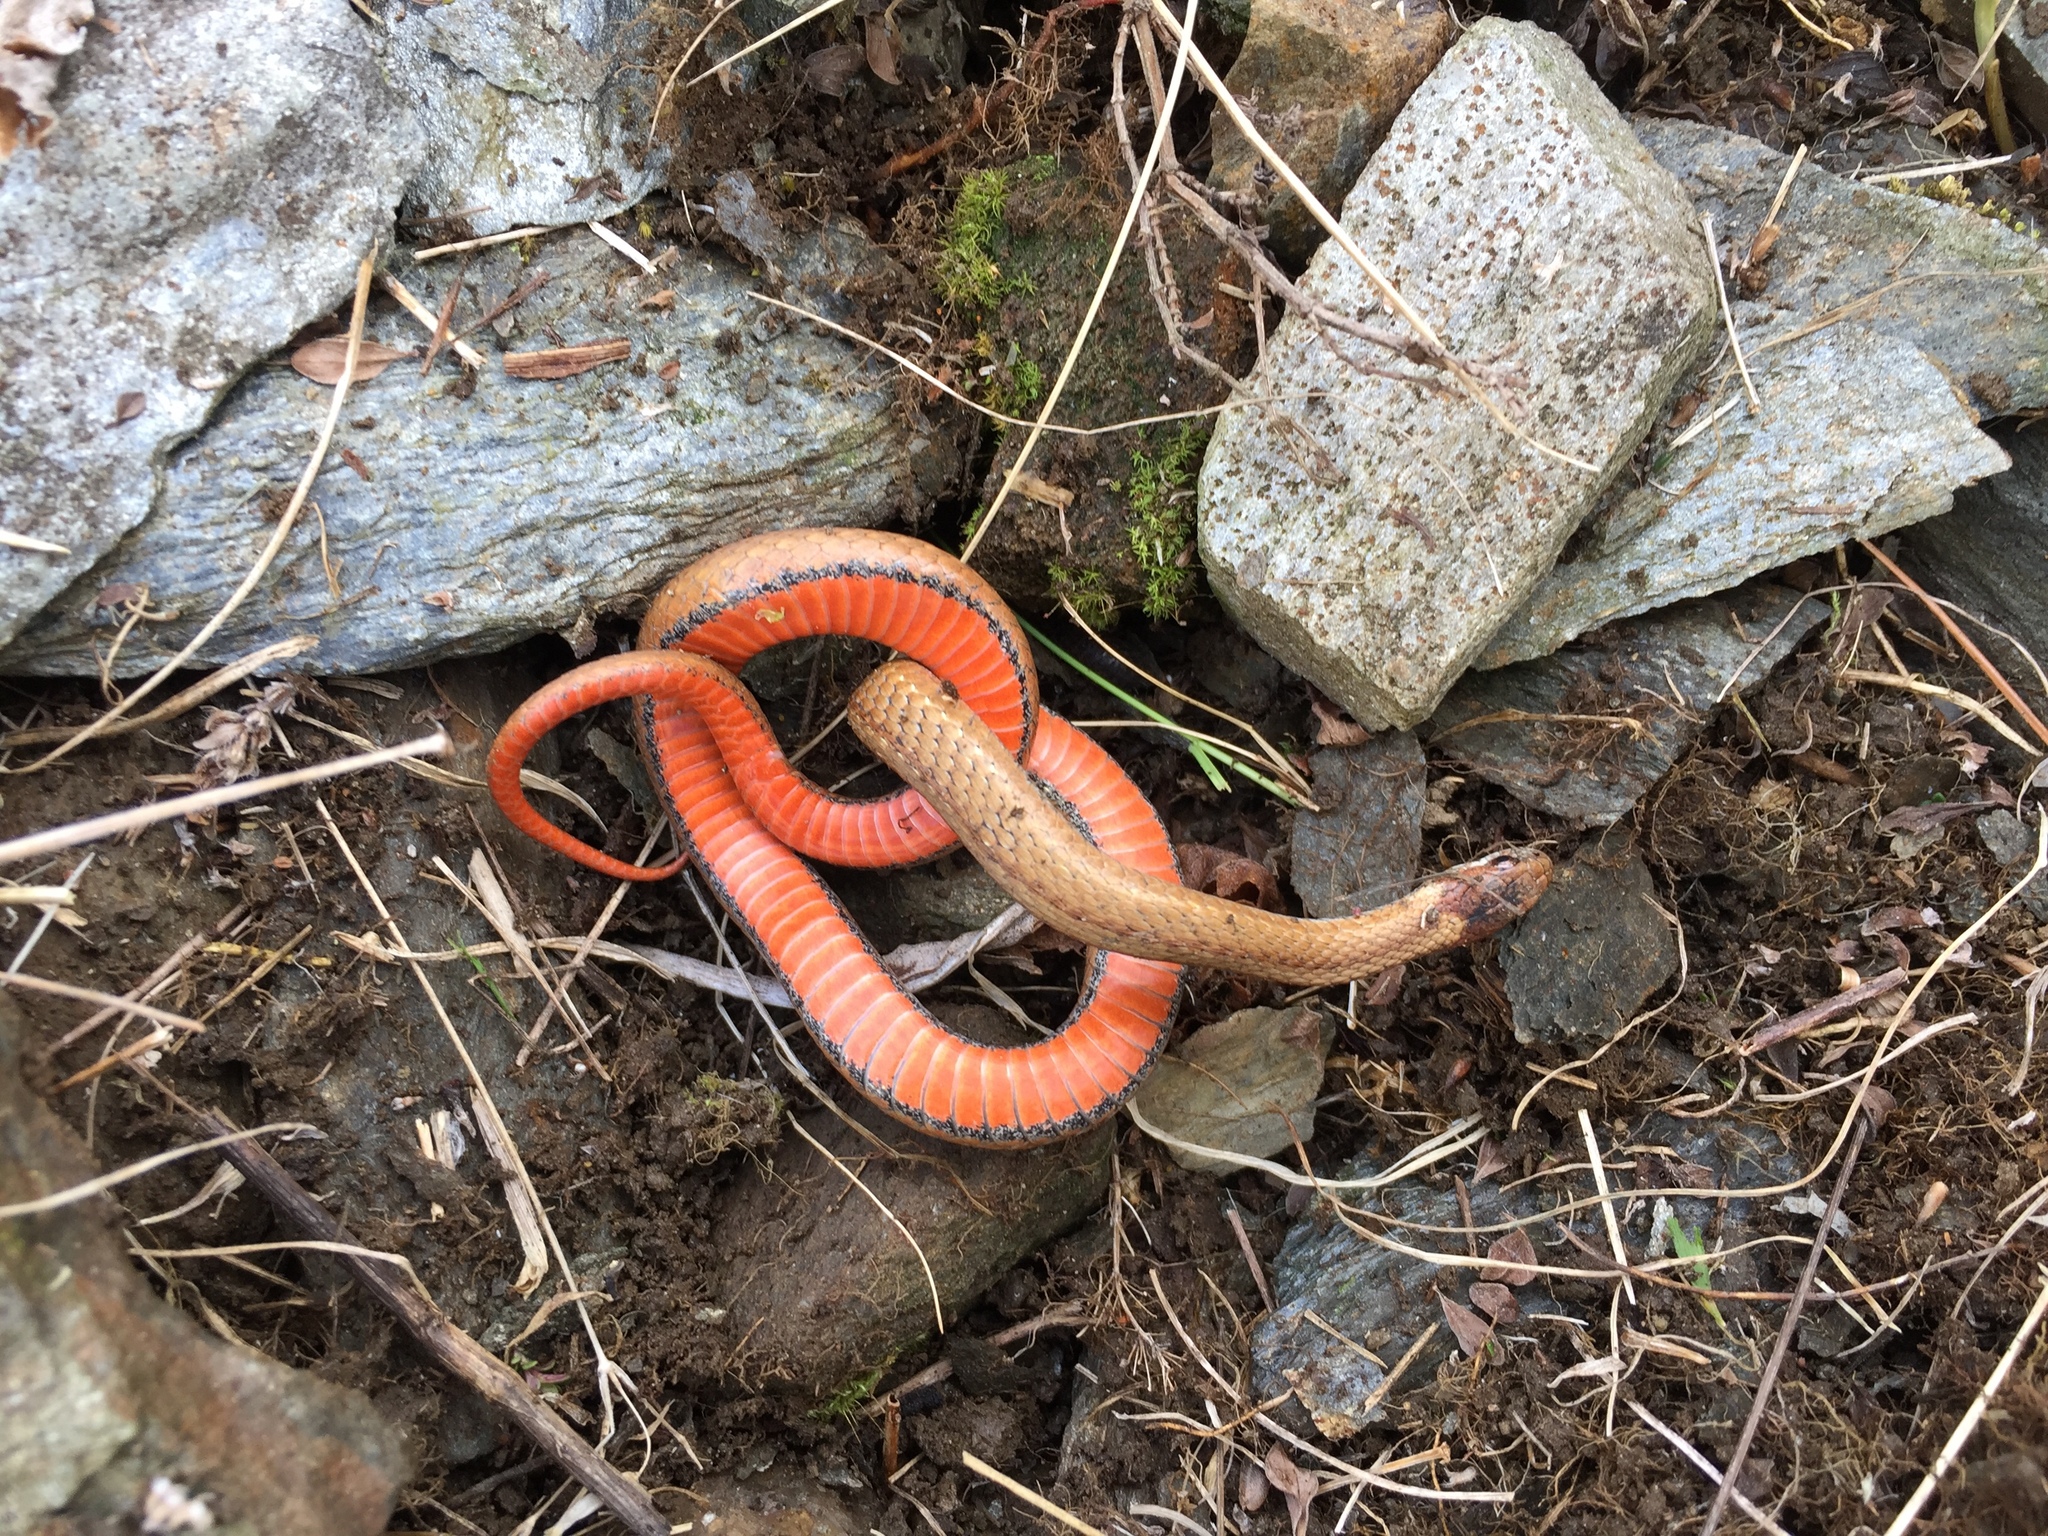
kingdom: Animalia
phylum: Chordata
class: Squamata
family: Colubridae
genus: Storeria
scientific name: Storeria occipitomaculata
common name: Redbelly snake
